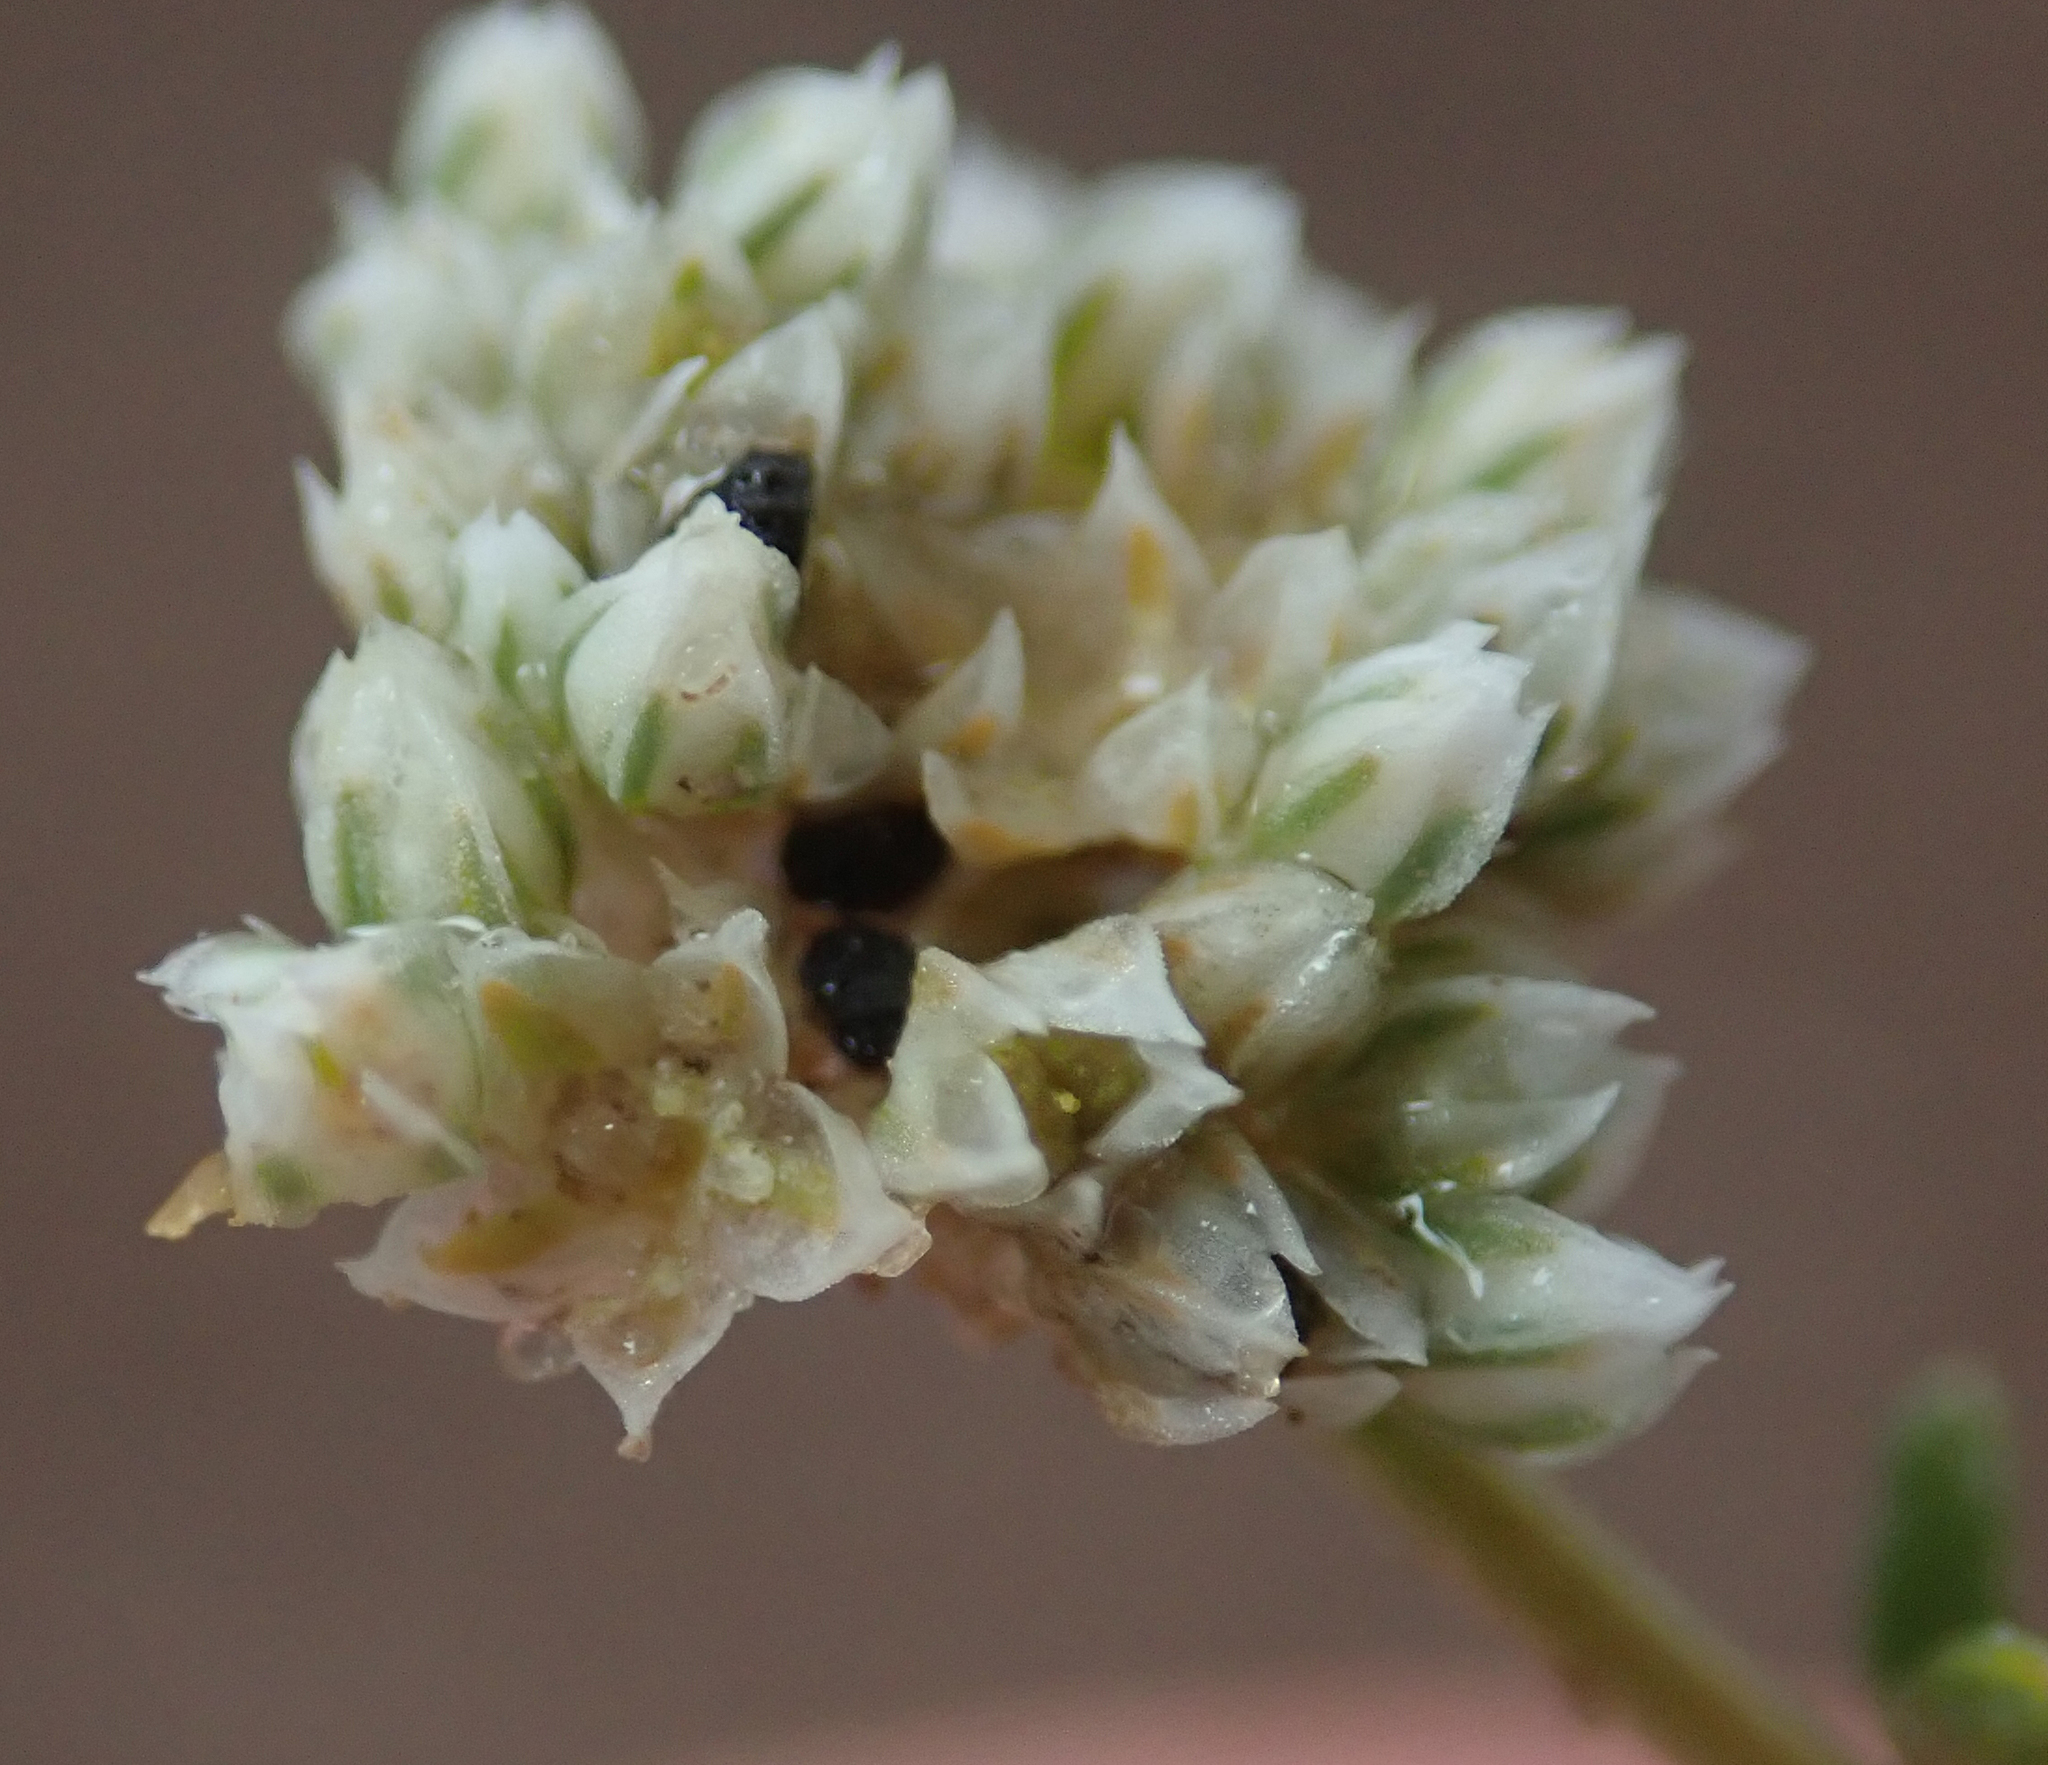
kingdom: Plantae
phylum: Tracheophyta
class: Magnoliopsida
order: Caryophyllales
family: Limeaceae
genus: Limeum
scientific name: Limeum sulcatum
